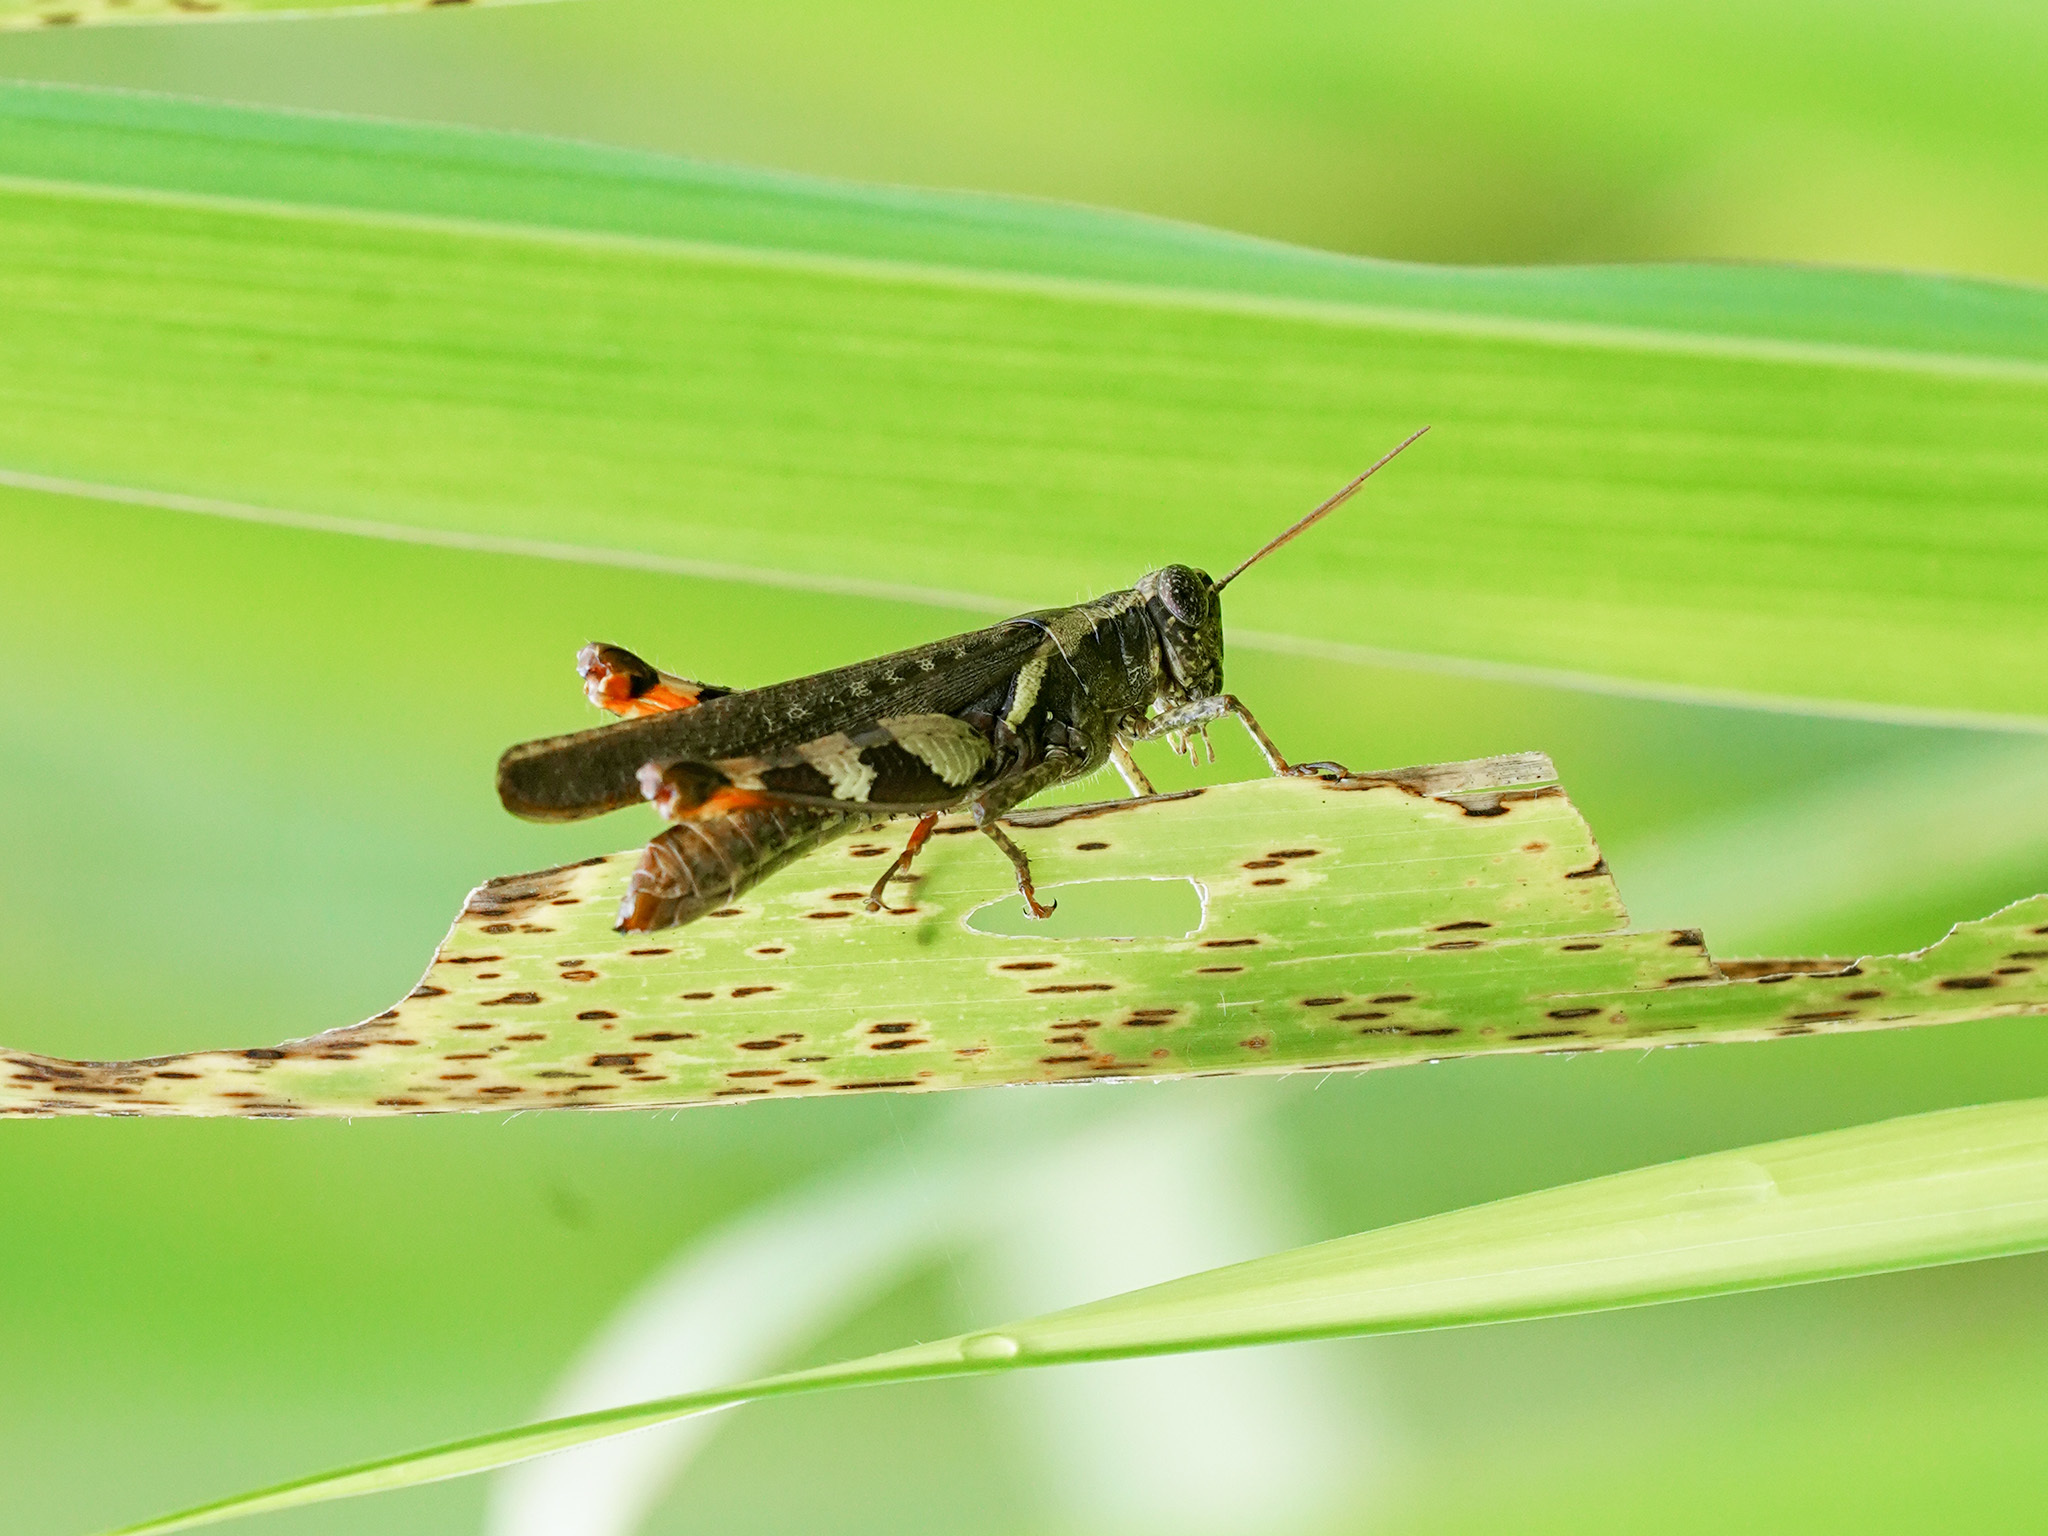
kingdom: Animalia
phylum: Arthropoda
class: Insecta
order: Orthoptera
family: Acrididae
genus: Xenocatantops
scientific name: Xenocatantops humile
